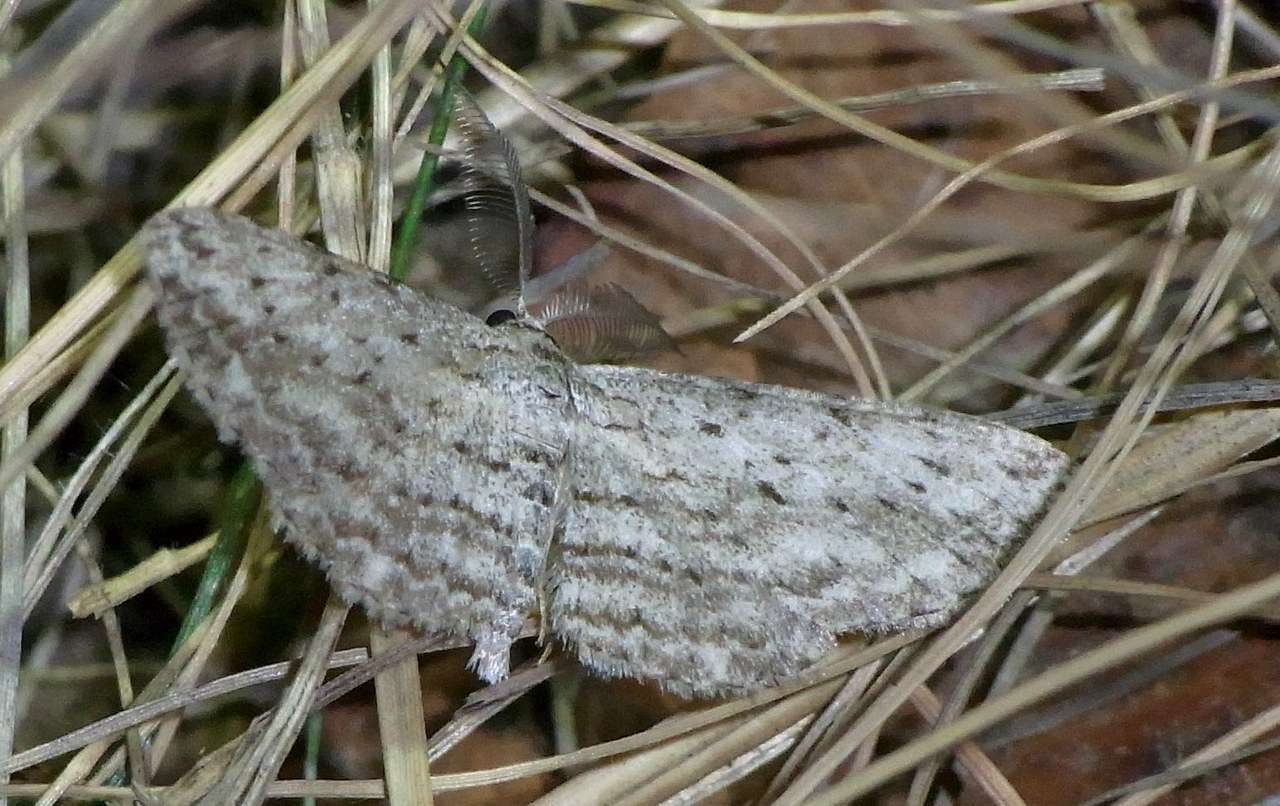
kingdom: Animalia
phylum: Arthropoda
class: Insecta
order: Lepidoptera
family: Geometridae
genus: Phelotis
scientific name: Phelotis cognata
